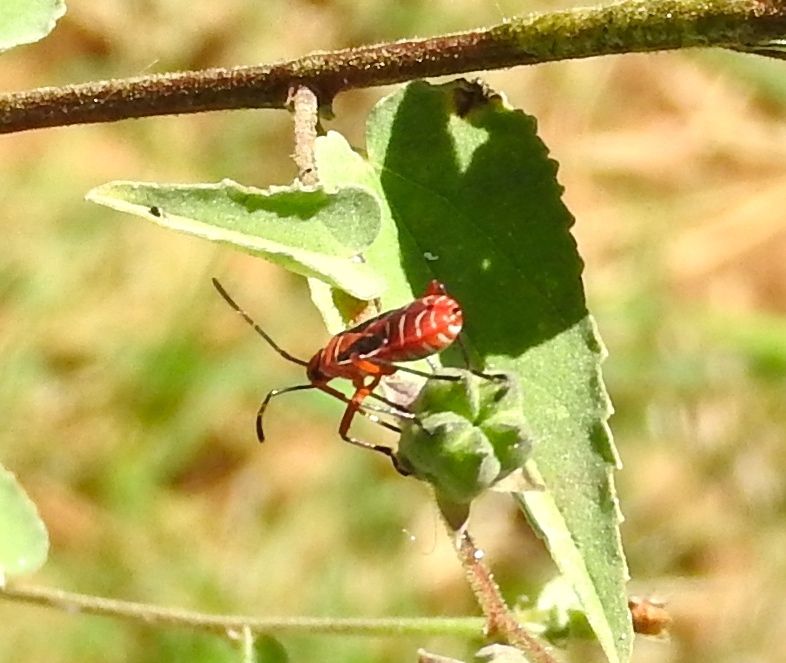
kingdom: Animalia
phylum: Arthropoda
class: Insecta
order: Hemiptera
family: Pyrrhocoridae
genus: Dysdercus
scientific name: Dysdercus
